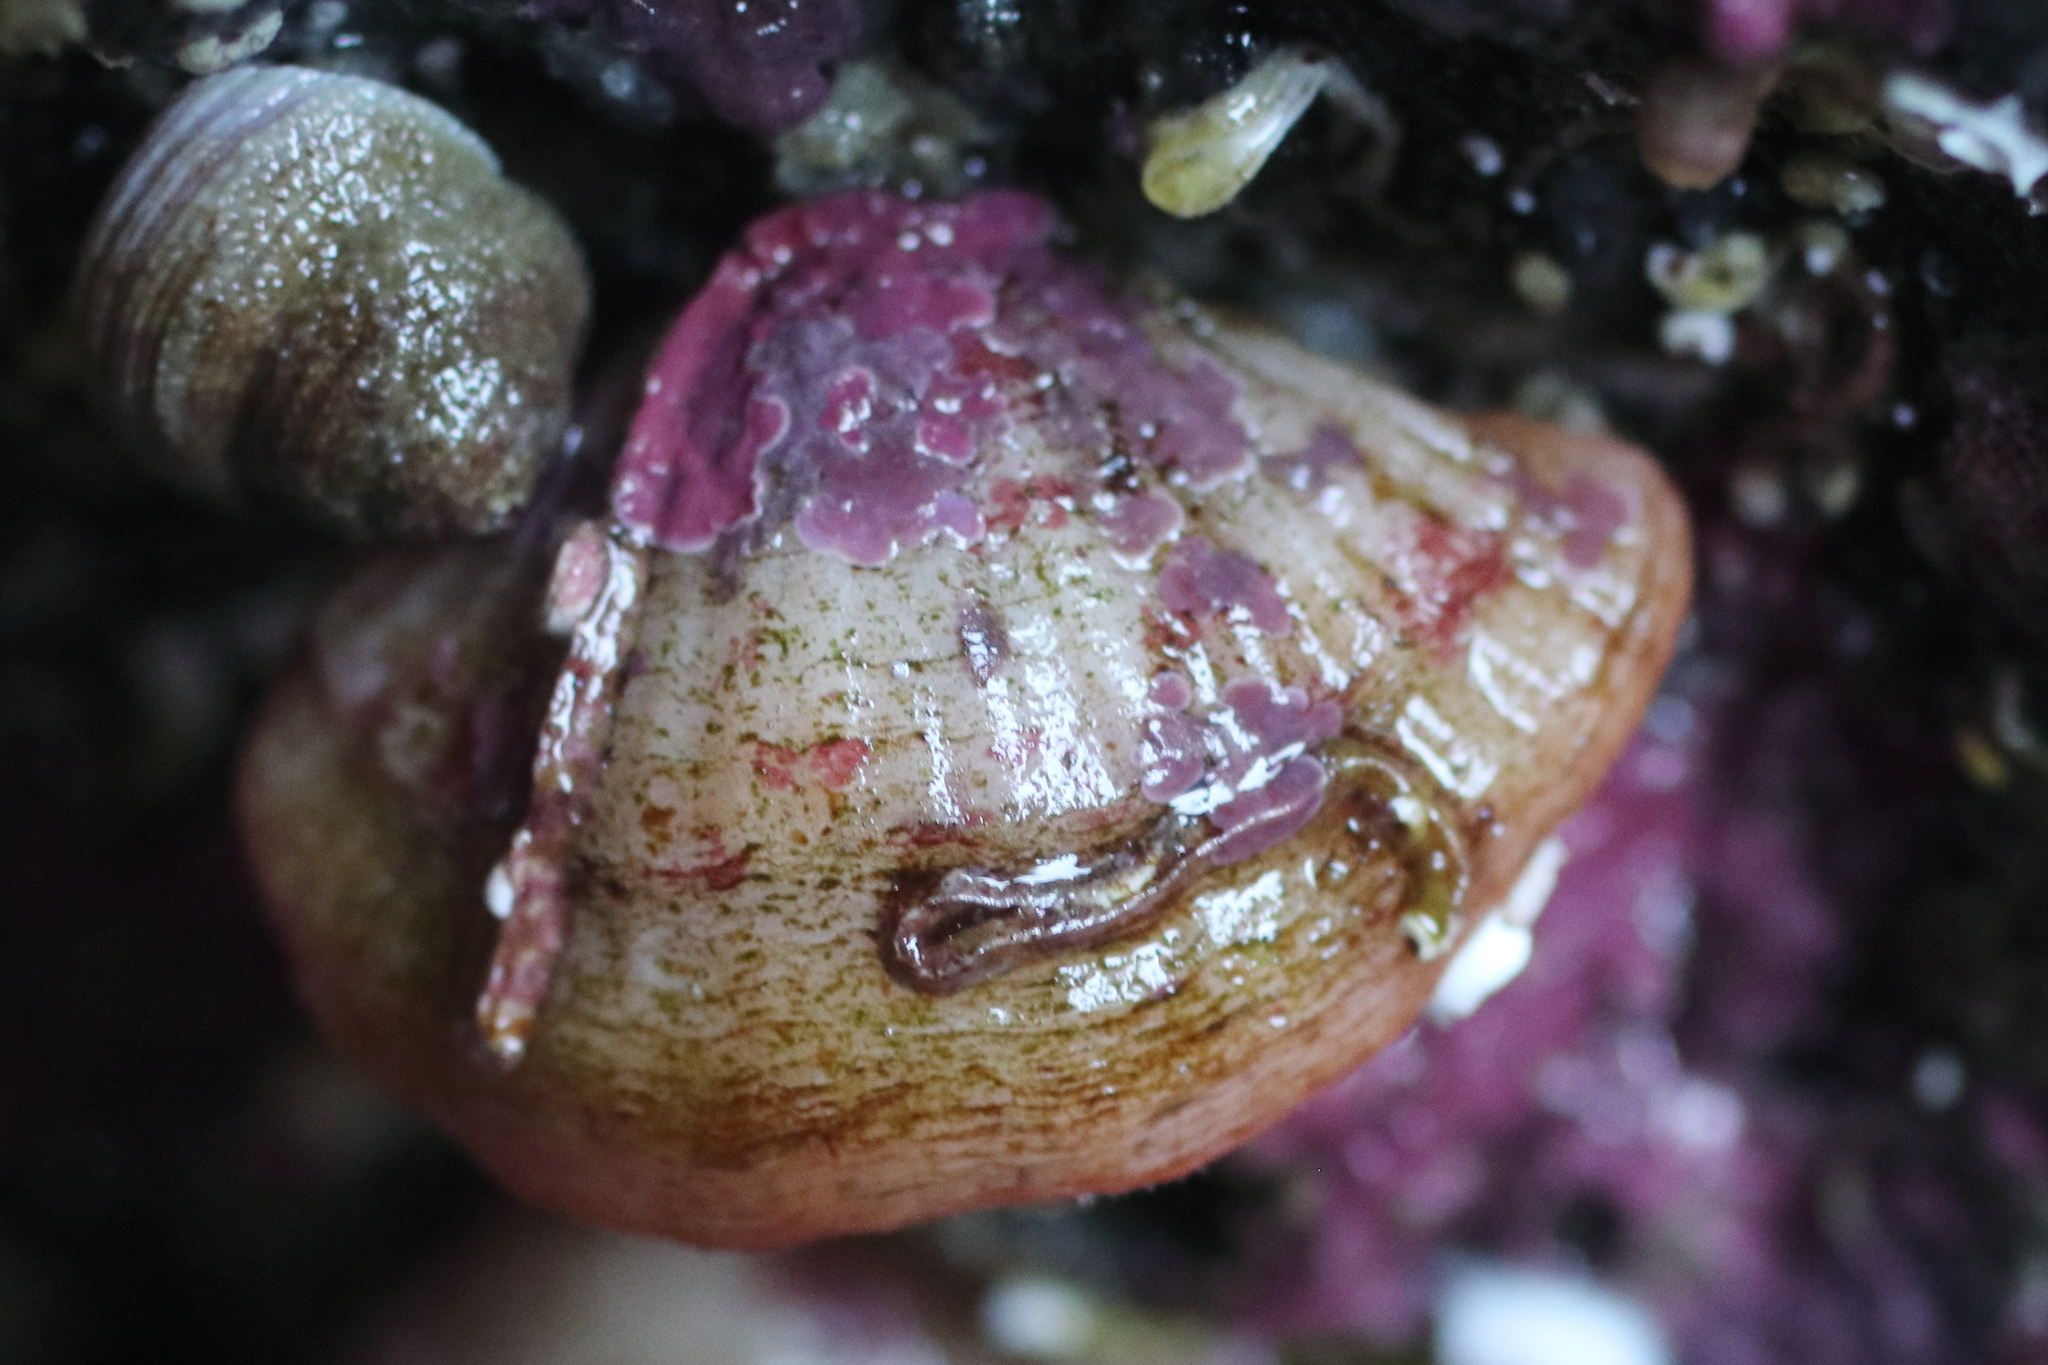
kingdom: Animalia
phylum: Brachiopoda
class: Rhynchonellata
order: Terebratulida
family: Terebrataliidae
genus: Terebratalia
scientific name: Terebratalia transversa
